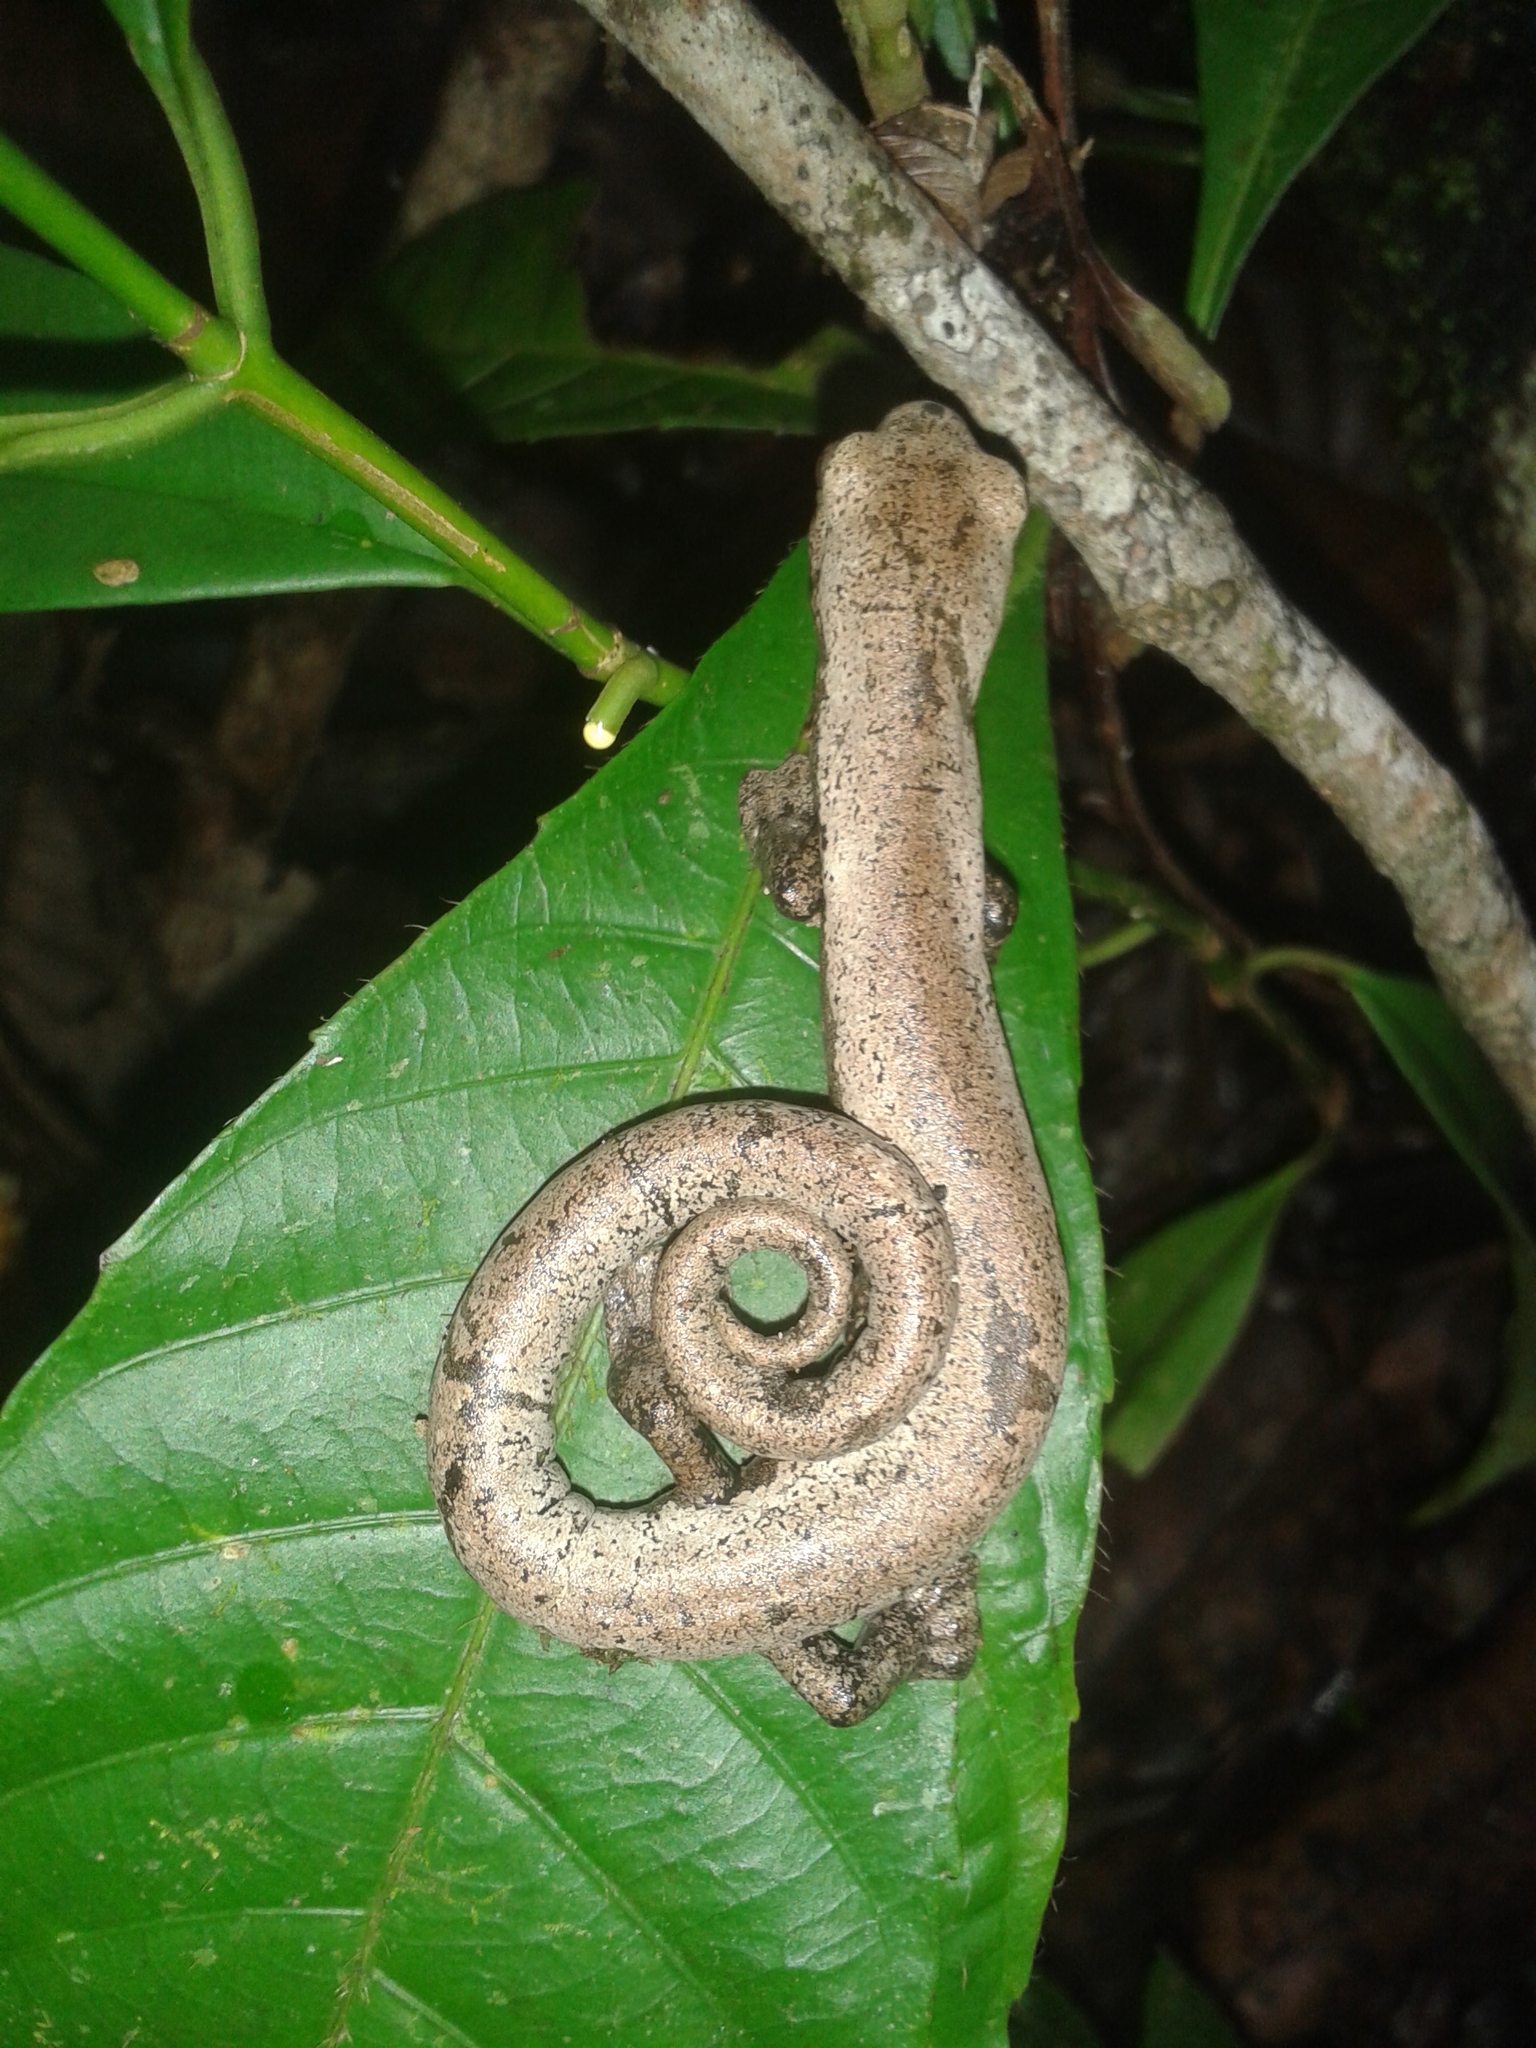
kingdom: Animalia
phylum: Chordata
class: Amphibia
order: Caudata
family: Plethodontidae
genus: Bolitoglossa
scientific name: Bolitoglossa lignicolor
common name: Camron mushroomtongue salamander
